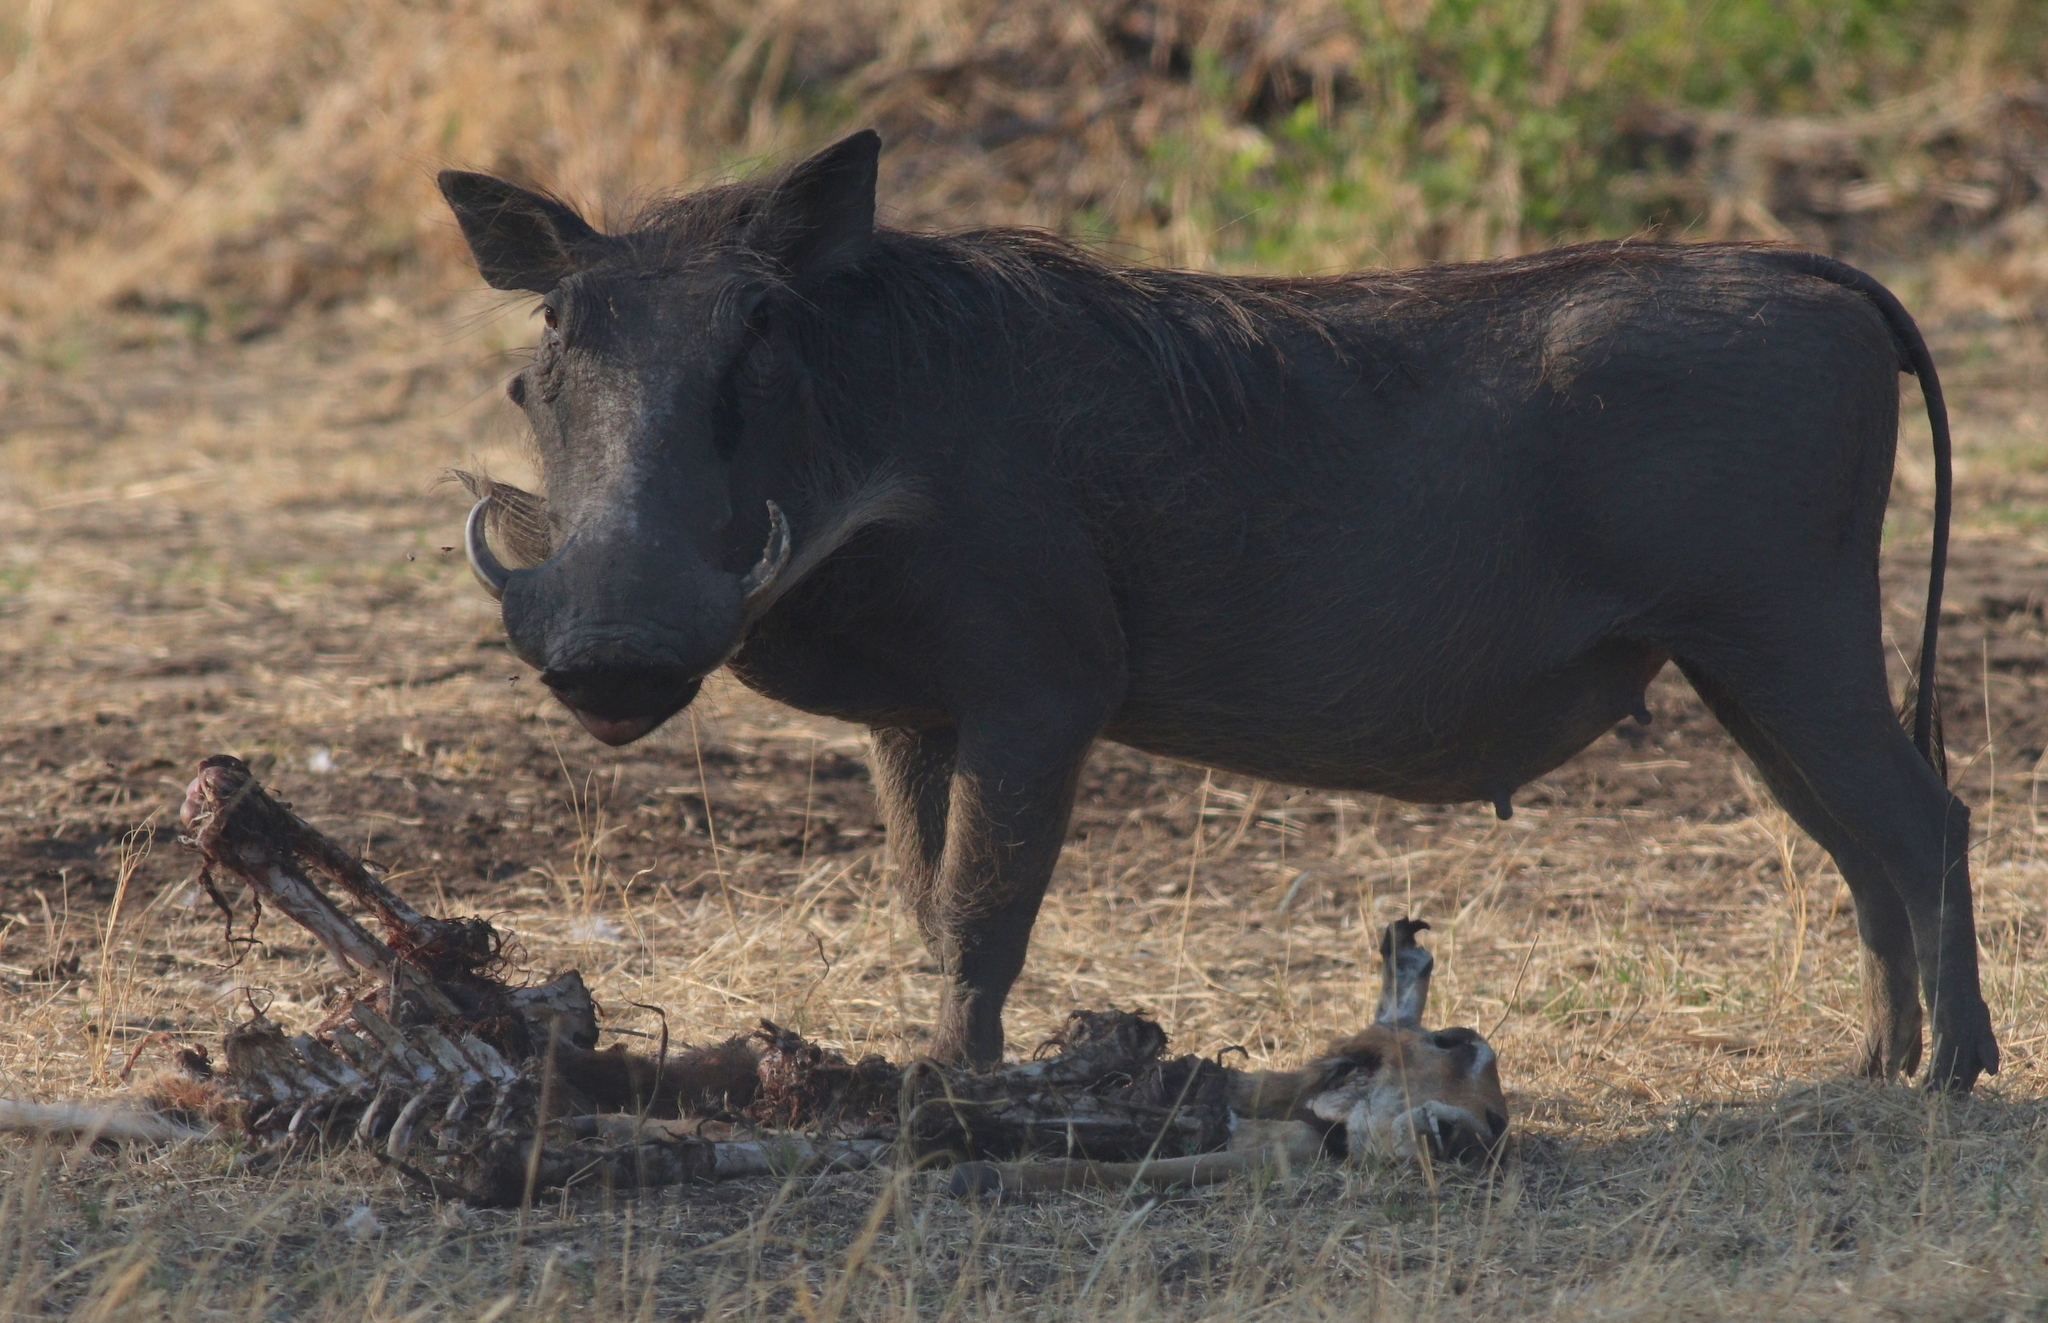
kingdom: Animalia
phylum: Chordata
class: Mammalia
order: Artiodactyla
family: Suidae
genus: Phacochoerus
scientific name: Phacochoerus africanus
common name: Common warthog
